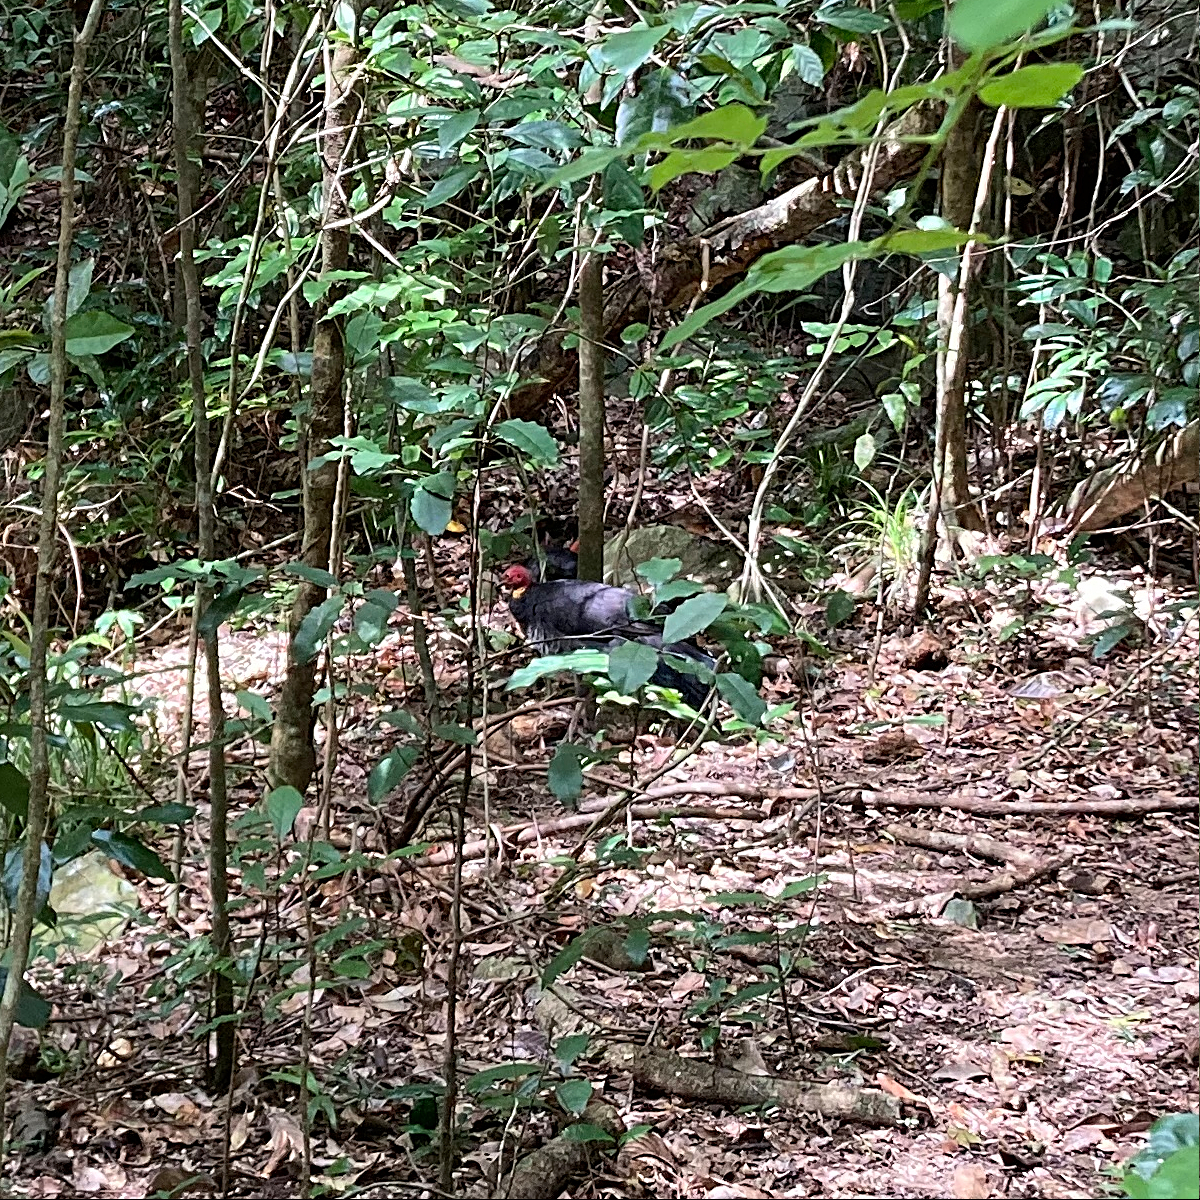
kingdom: Animalia
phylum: Chordata
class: Aves
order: Galliformes
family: Megapodiidae
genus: Alectura
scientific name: Alectura lathami
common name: Australian brushturkey
